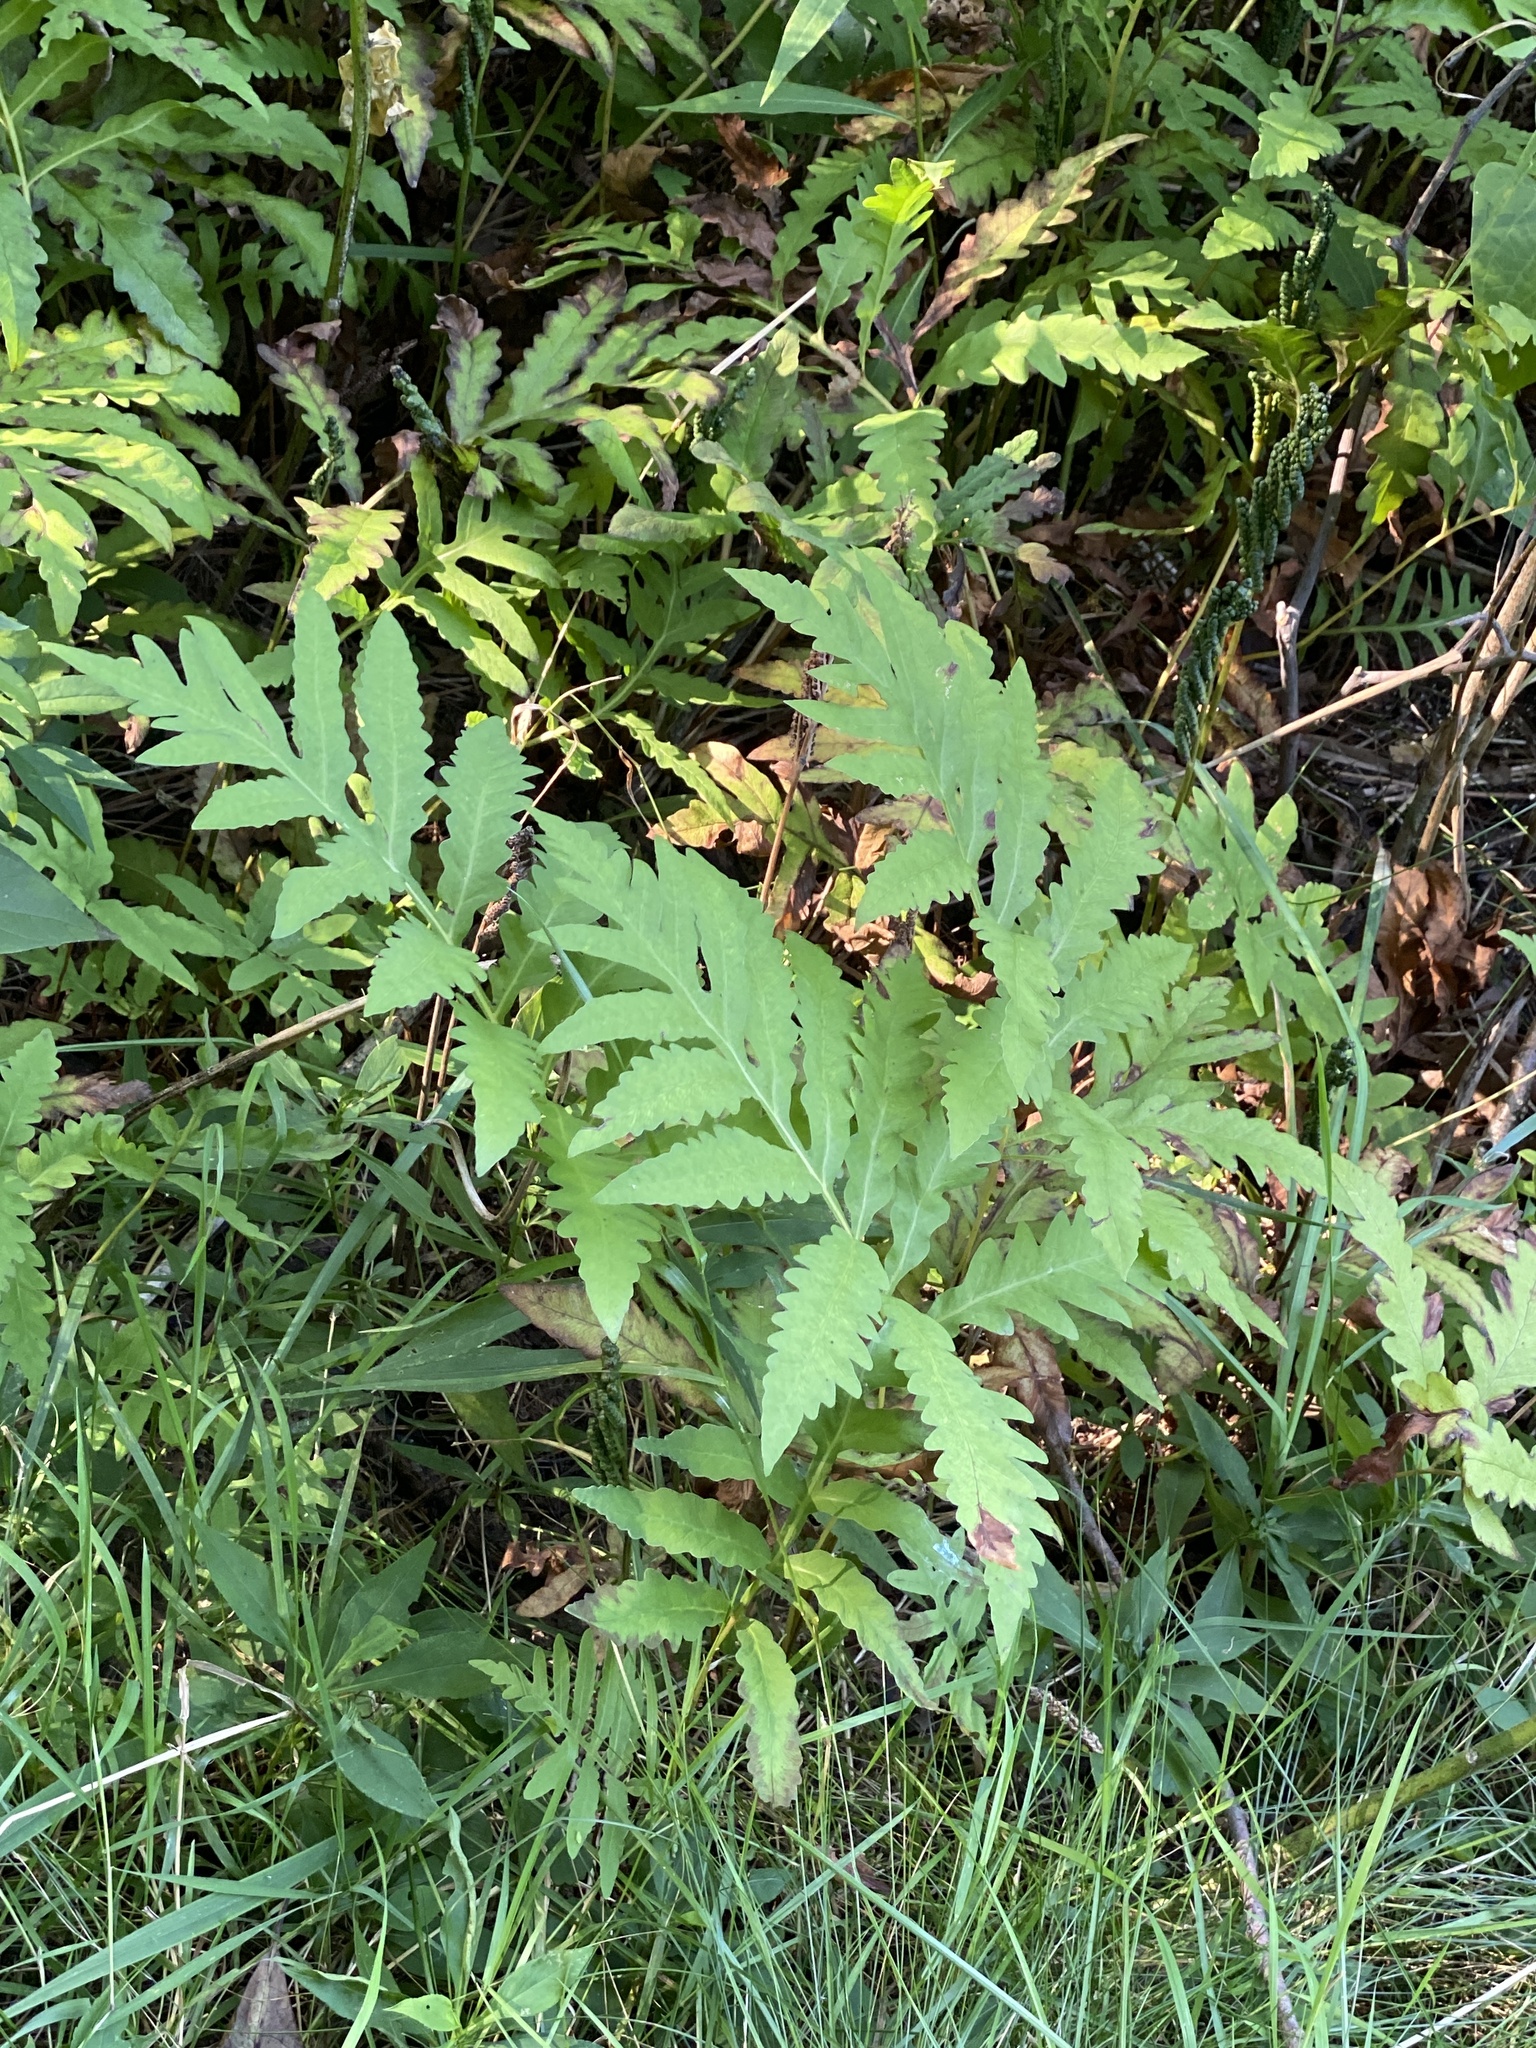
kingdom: Plantae
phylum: Tracheophyta
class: Polypodiopsida
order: Polypodiales
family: Onocleaceae
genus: Onoclea
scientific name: Onoclea sensibilis
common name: Sensitive fern
